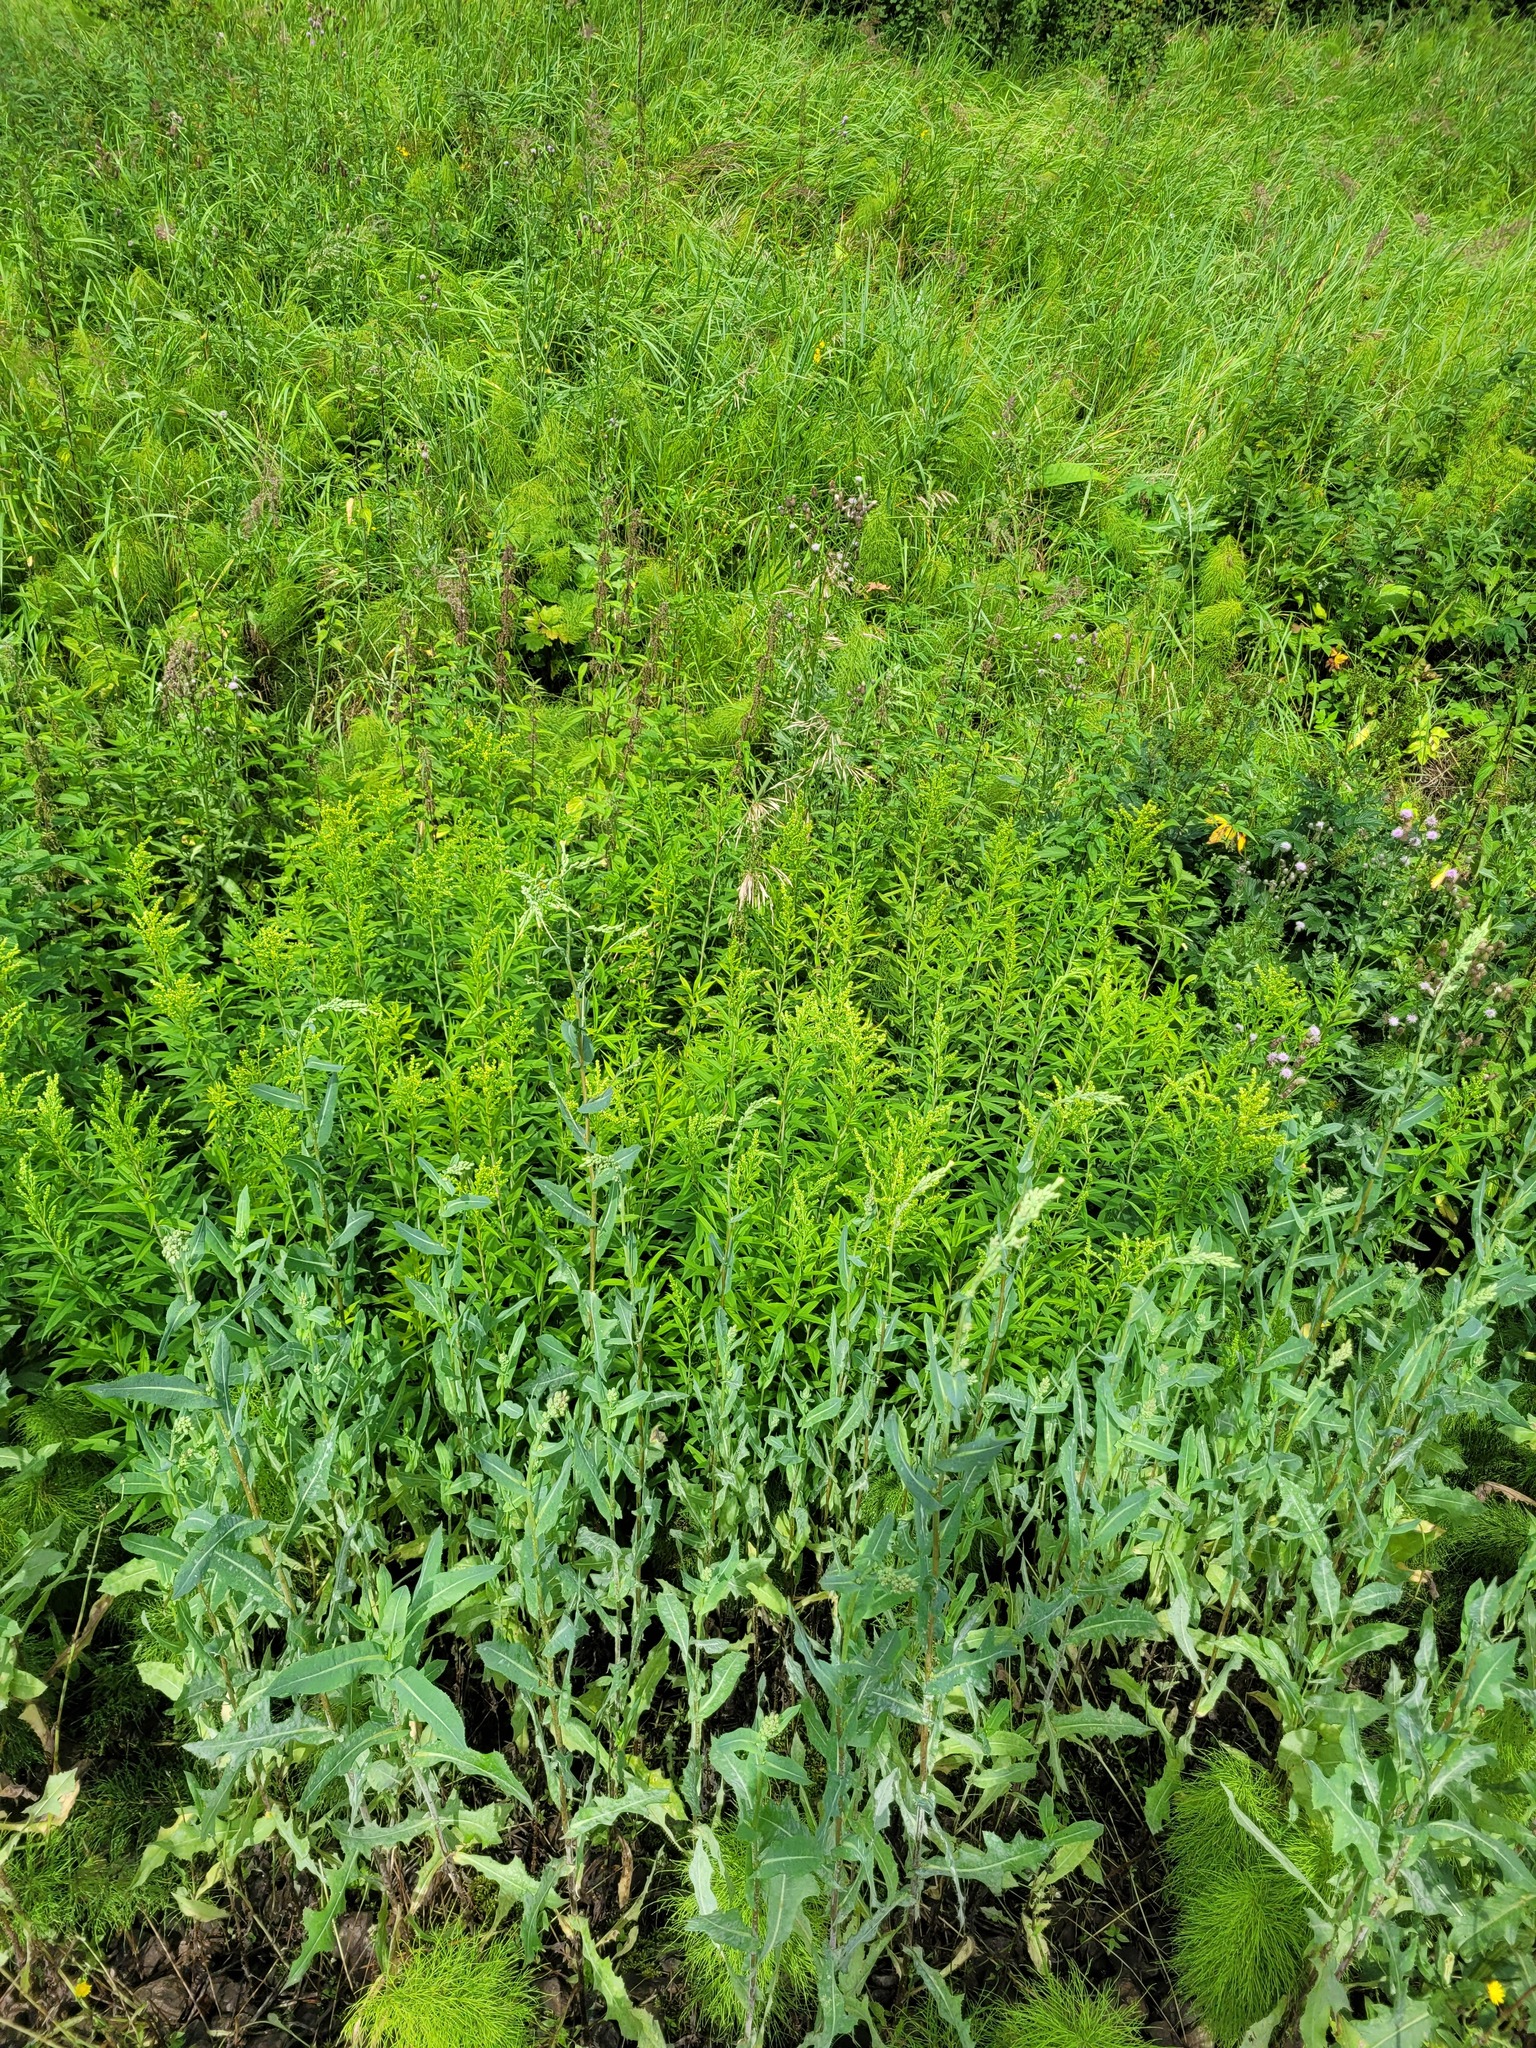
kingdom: Plantae
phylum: Tracheophyta
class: Magnoliopsida
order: Asterales
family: Asteraceae
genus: Lactuca
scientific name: Lactuca serriola
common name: Prickly lettuce
